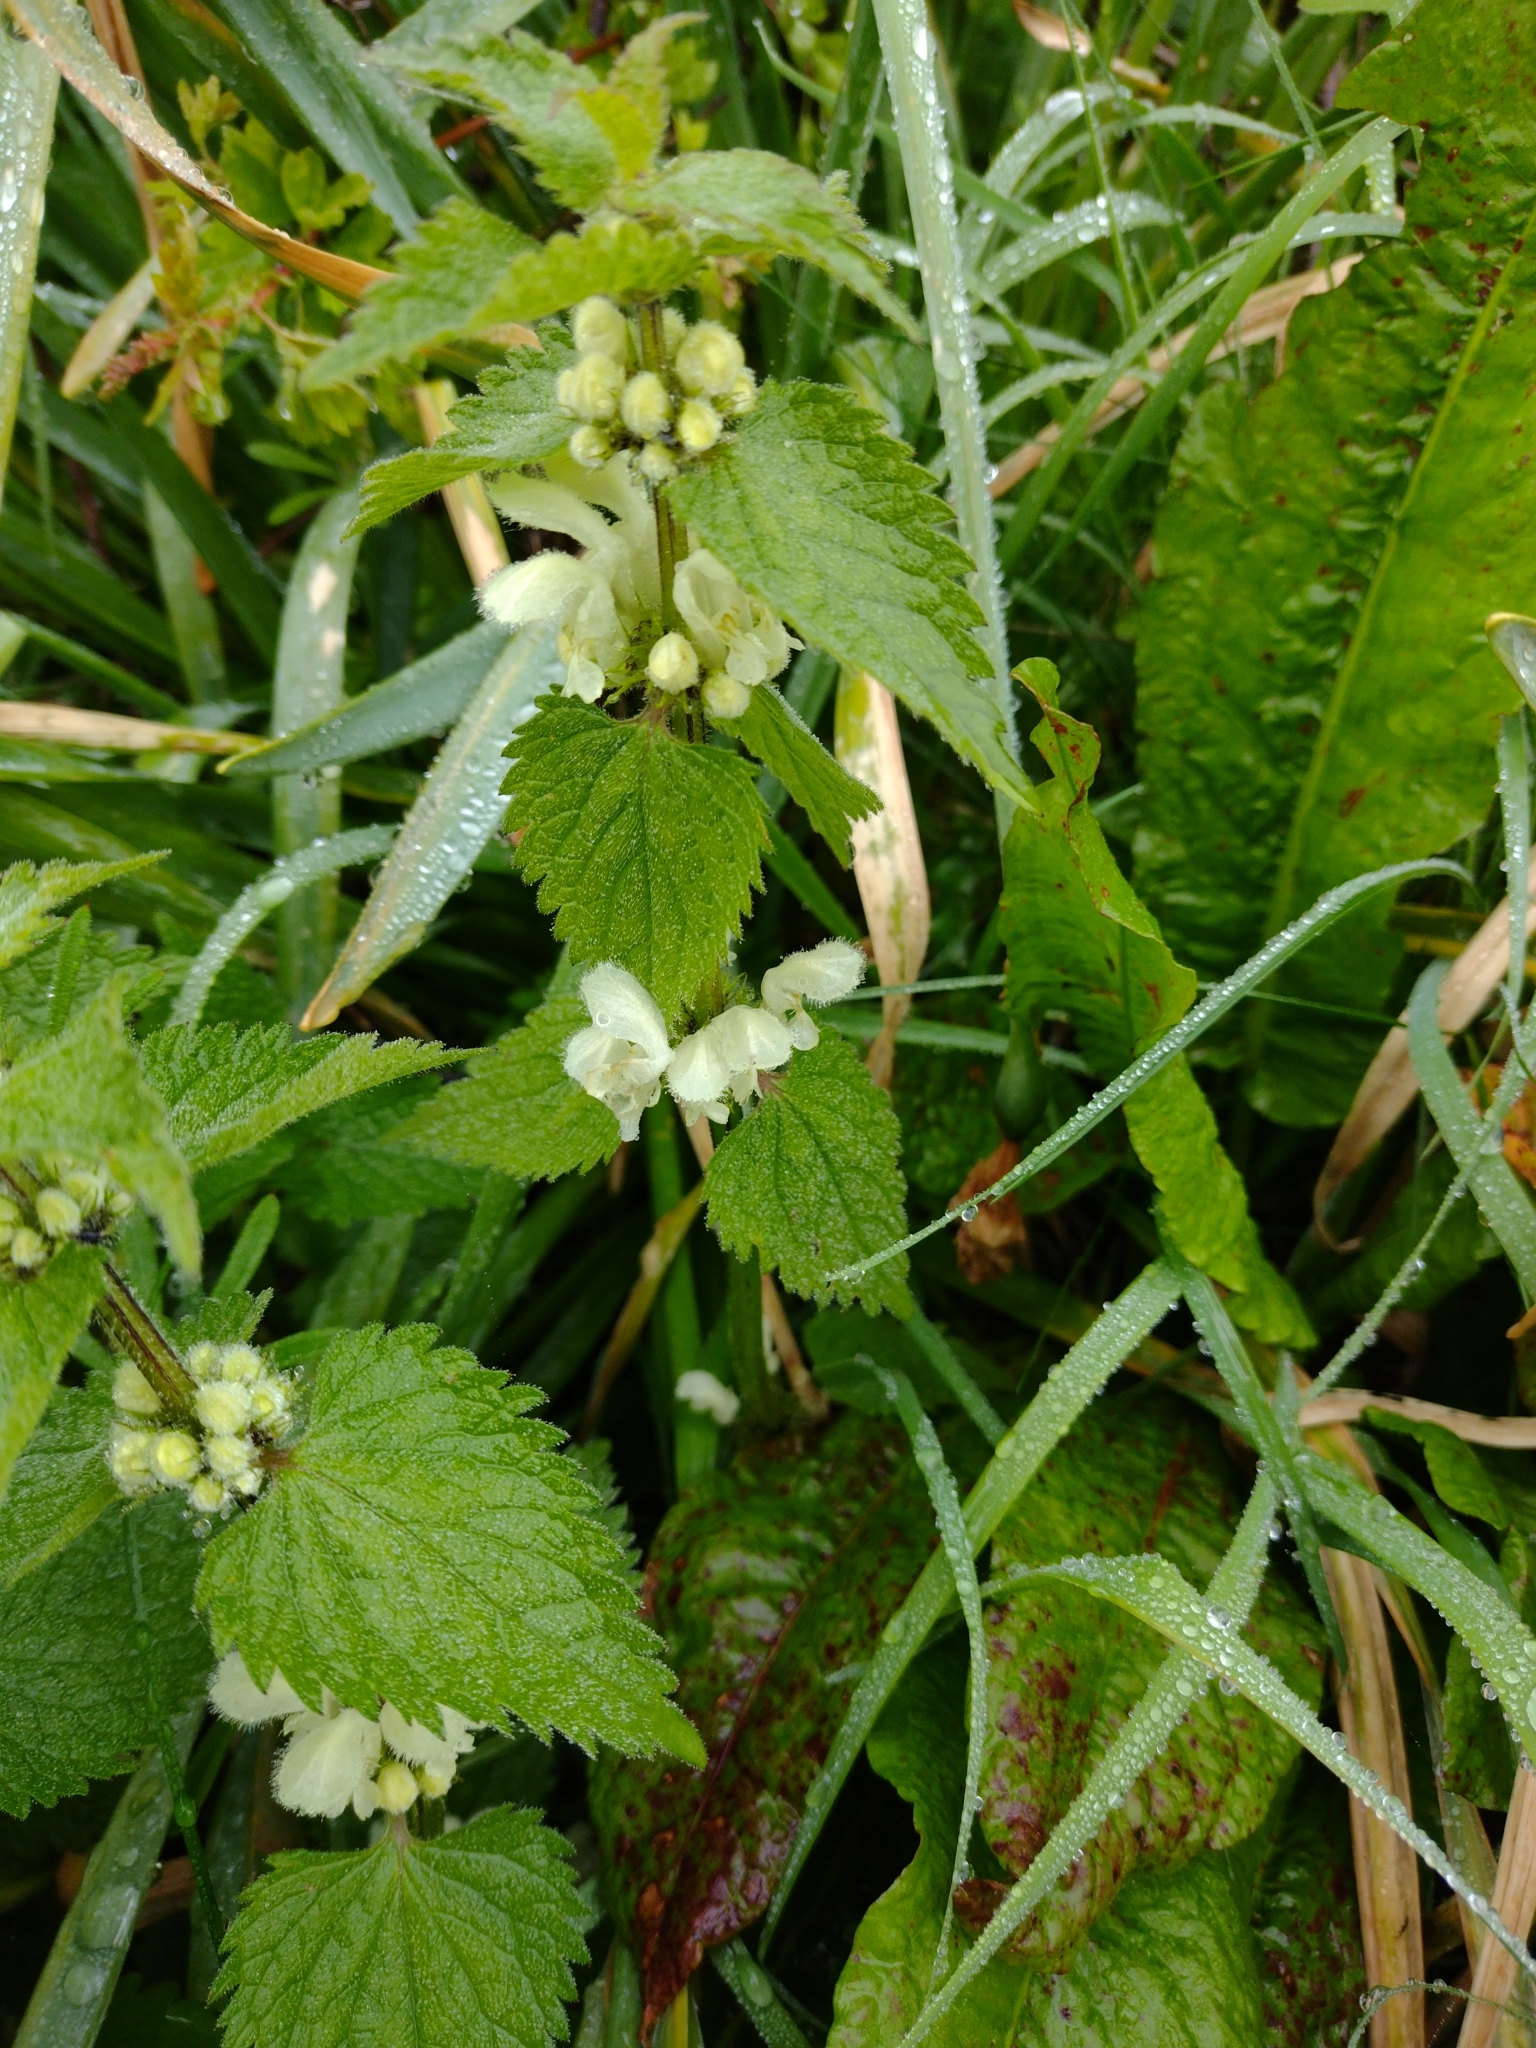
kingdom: Plantae
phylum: Tracheophyta
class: Magnoliopsida
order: Lamiales
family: Lamiaceae
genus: Lamium
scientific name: Lamium album
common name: White dead-nettle
